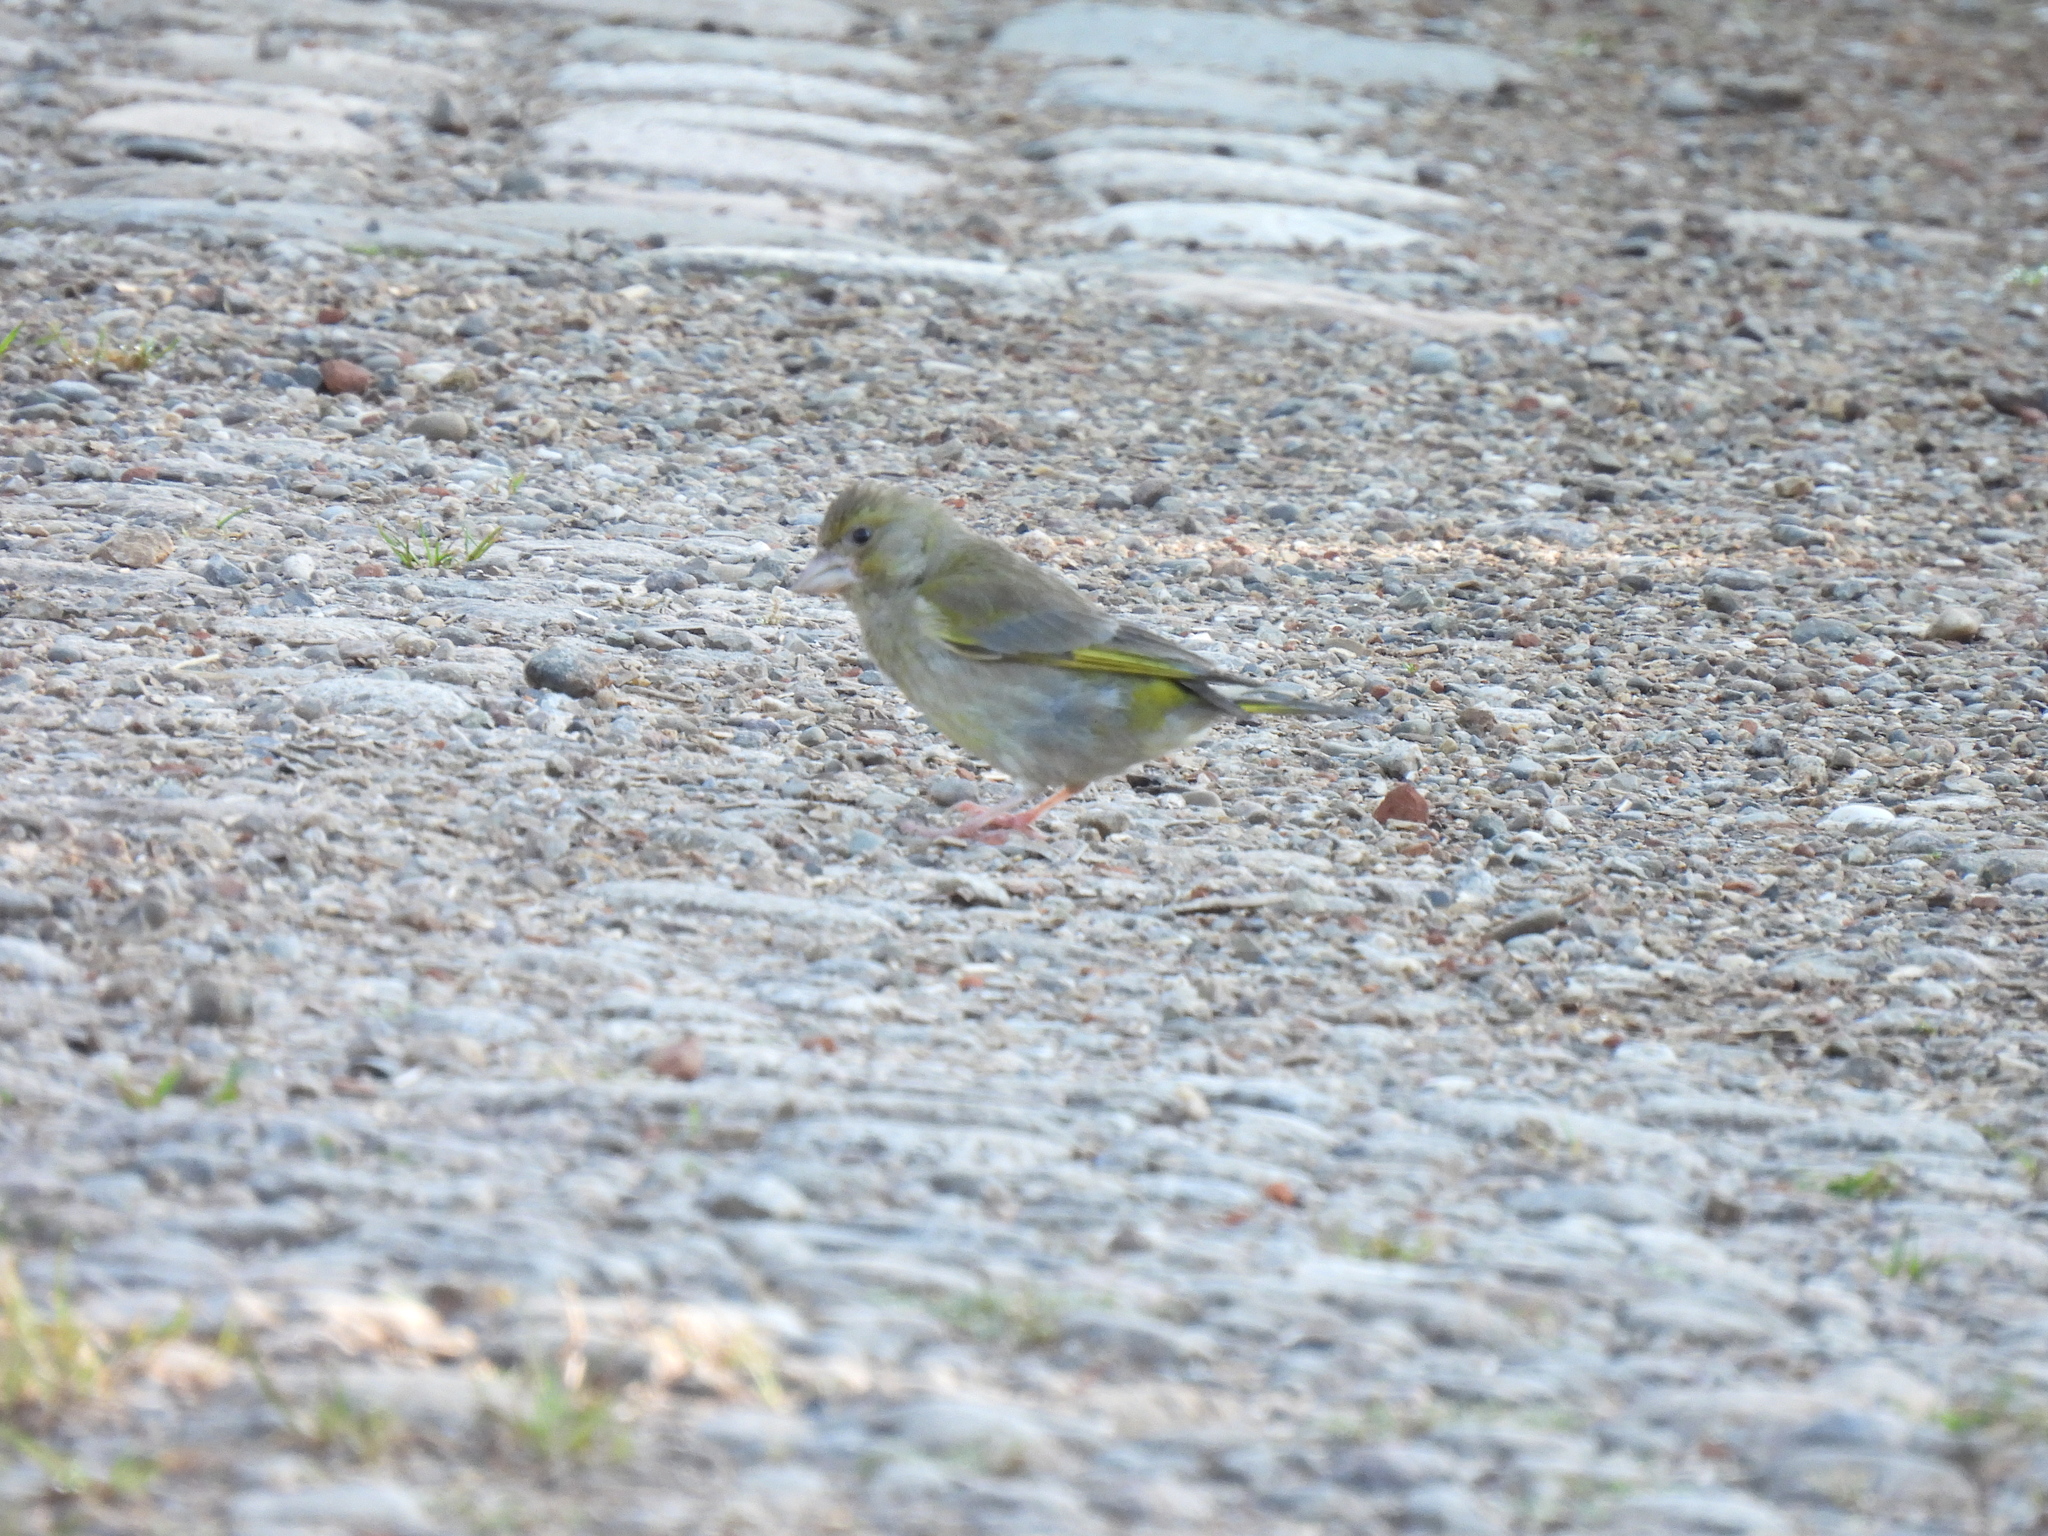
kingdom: Plantae
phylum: Tracheophyta
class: Liliopsida
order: Poales
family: Poaceae
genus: Chloris
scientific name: Chloris chloris
